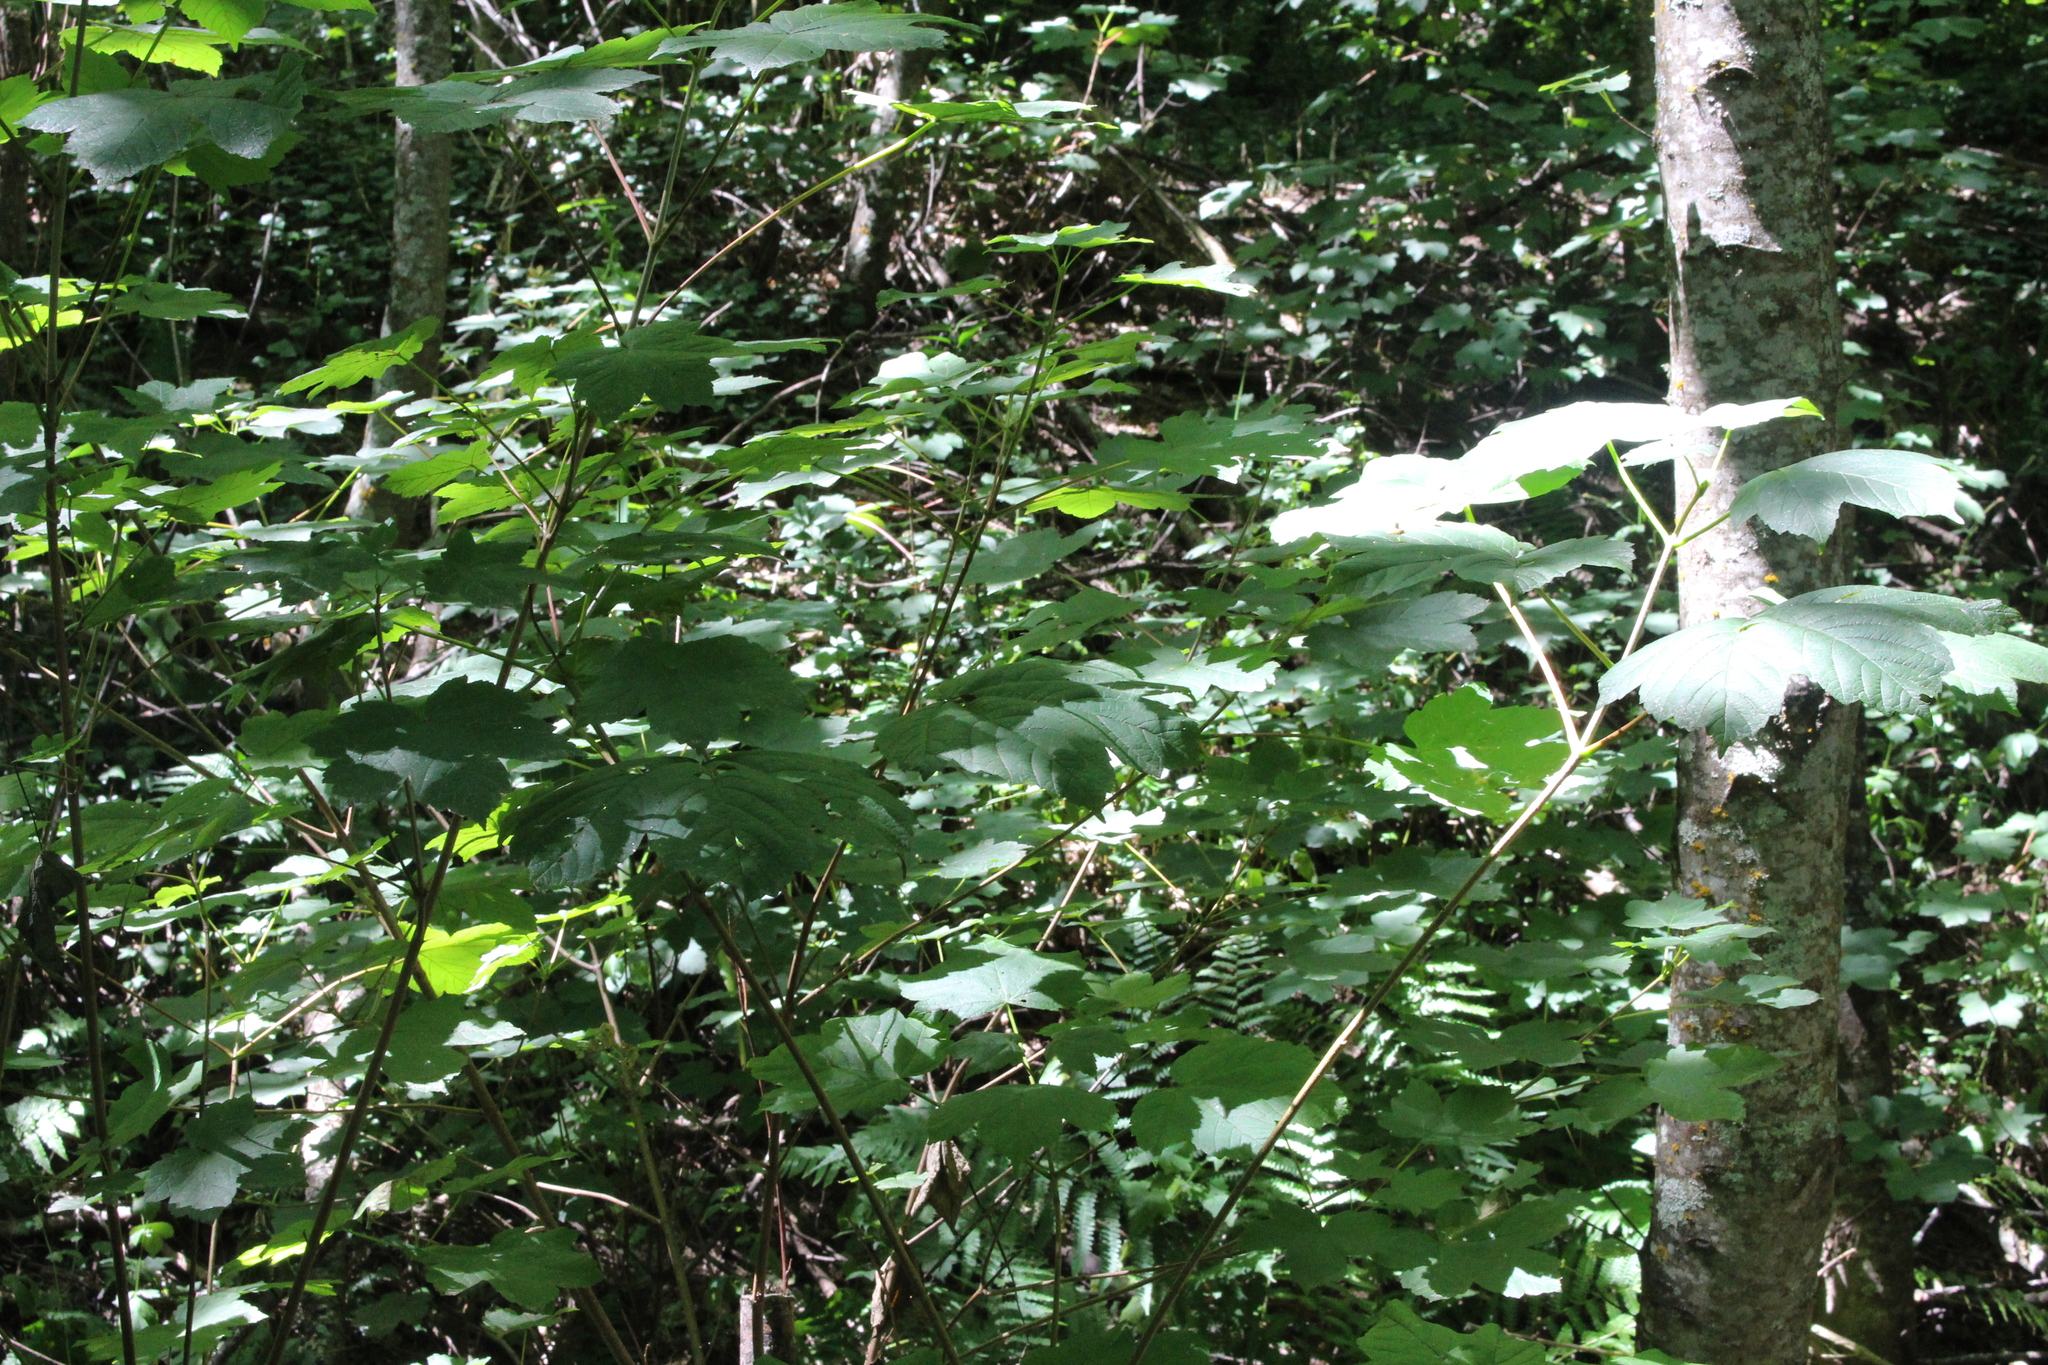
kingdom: Plantae
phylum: Tracheophyta
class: Magnoliopsida
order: Sapindales
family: Sapindaceae
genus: Acer
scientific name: Acer pseudoplatanus
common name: Sycamore
